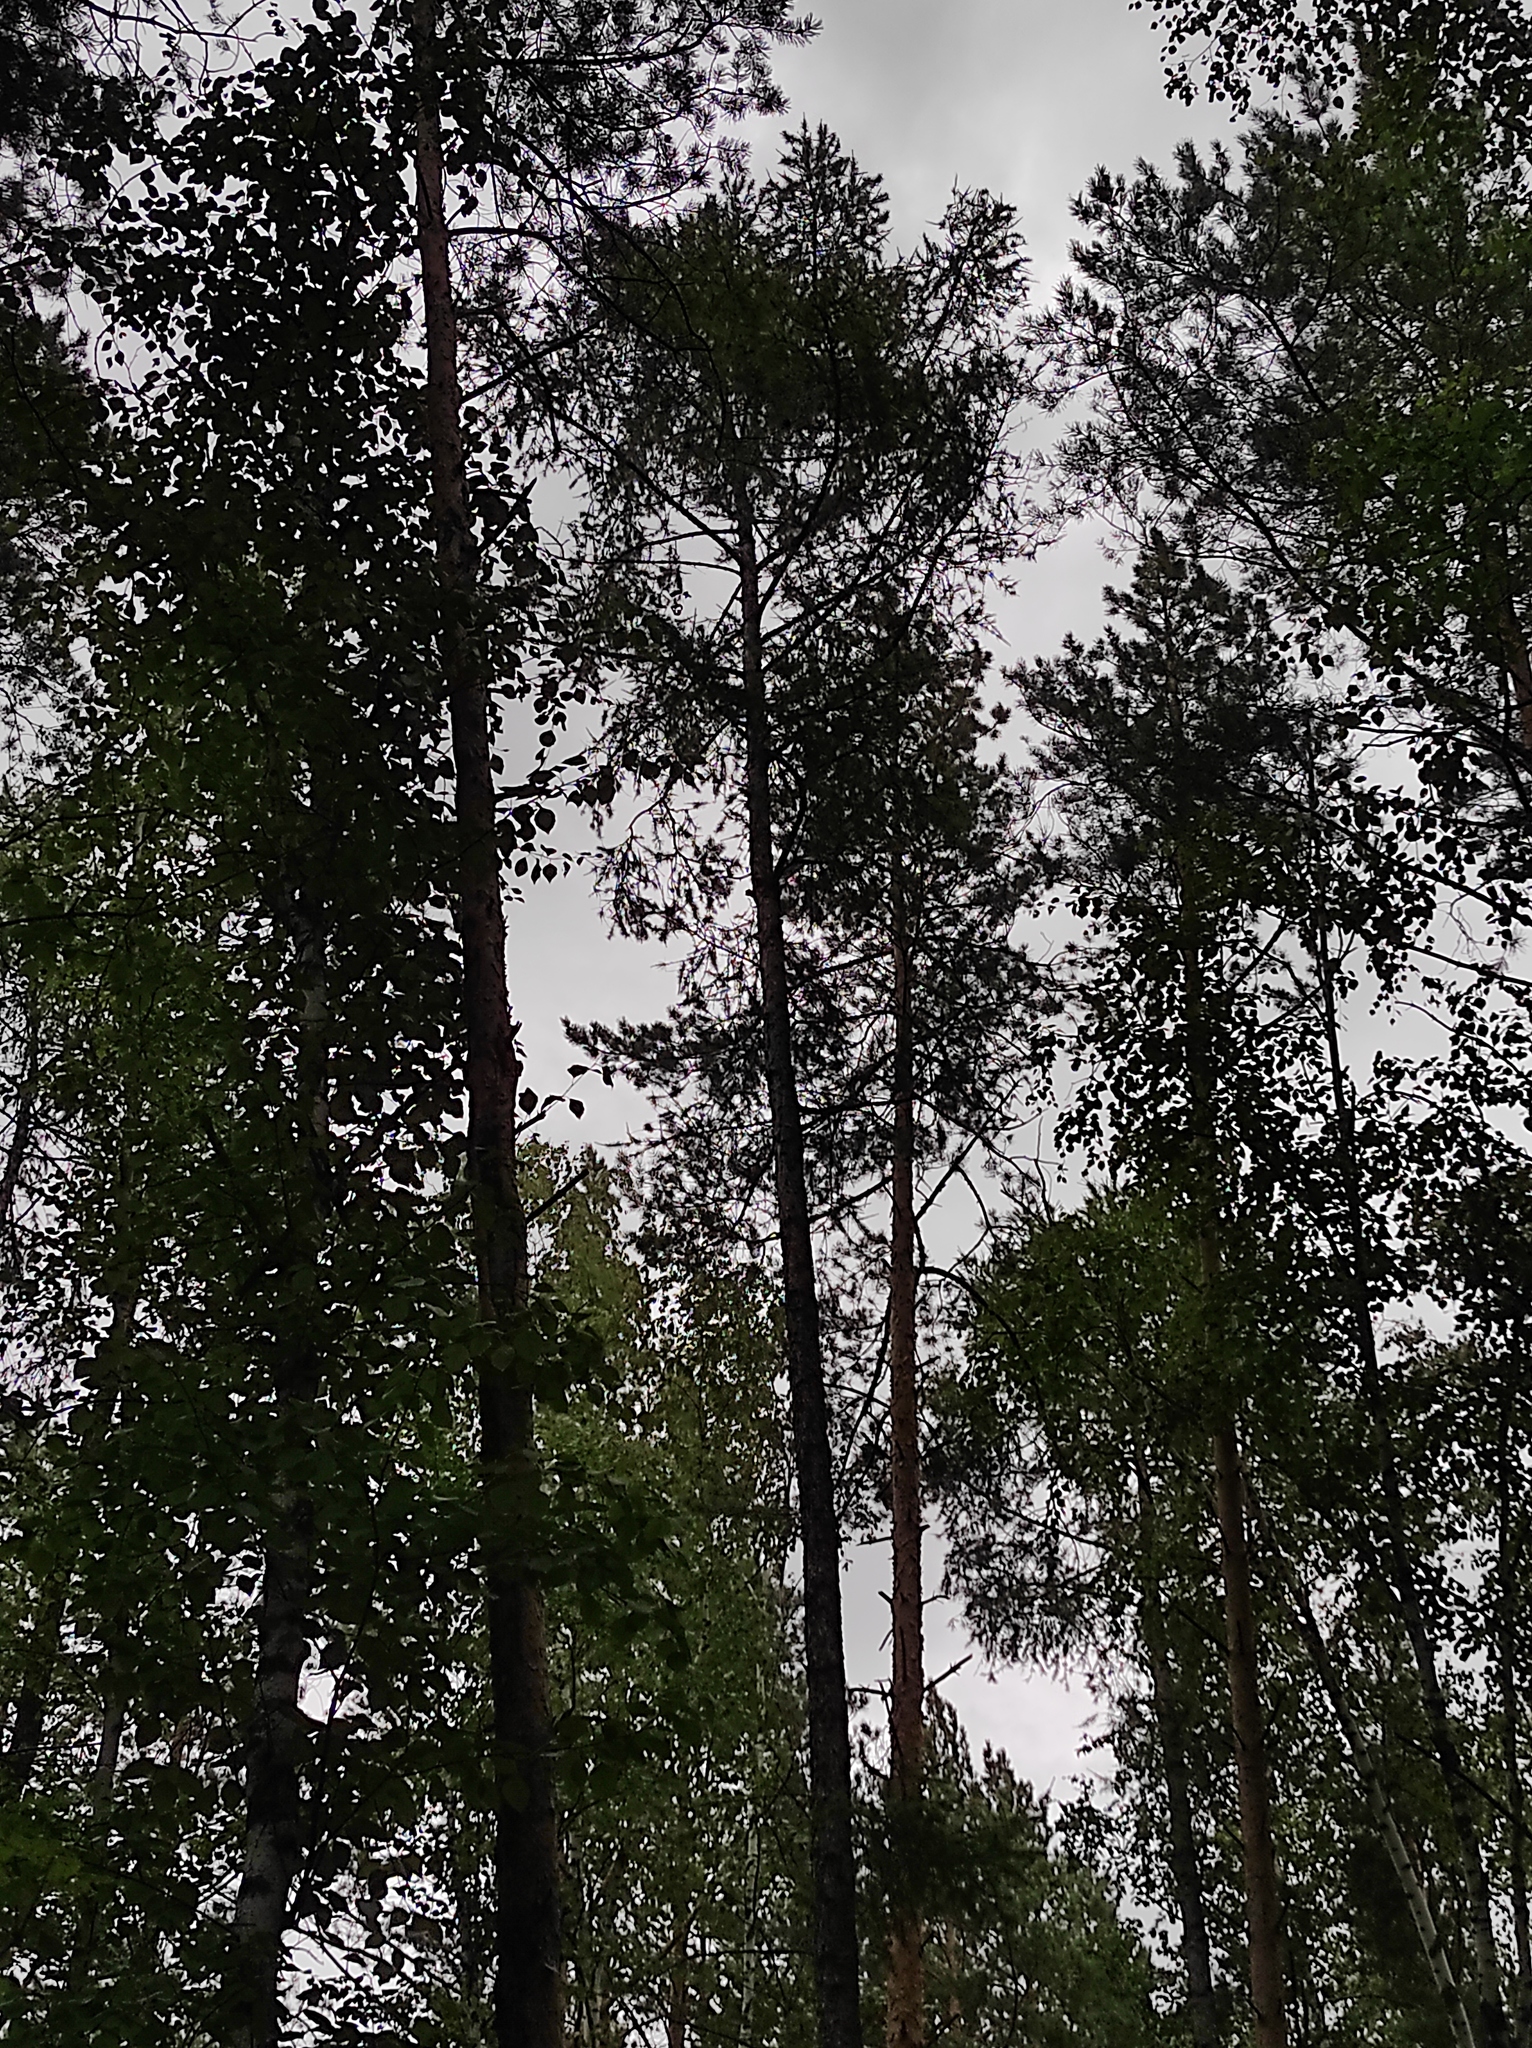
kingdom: Plantae
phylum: Tracheophyta
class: Pinopsida
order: Pinales
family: Pinaceae
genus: Larix
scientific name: Larix sibirica
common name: Siberian larch
